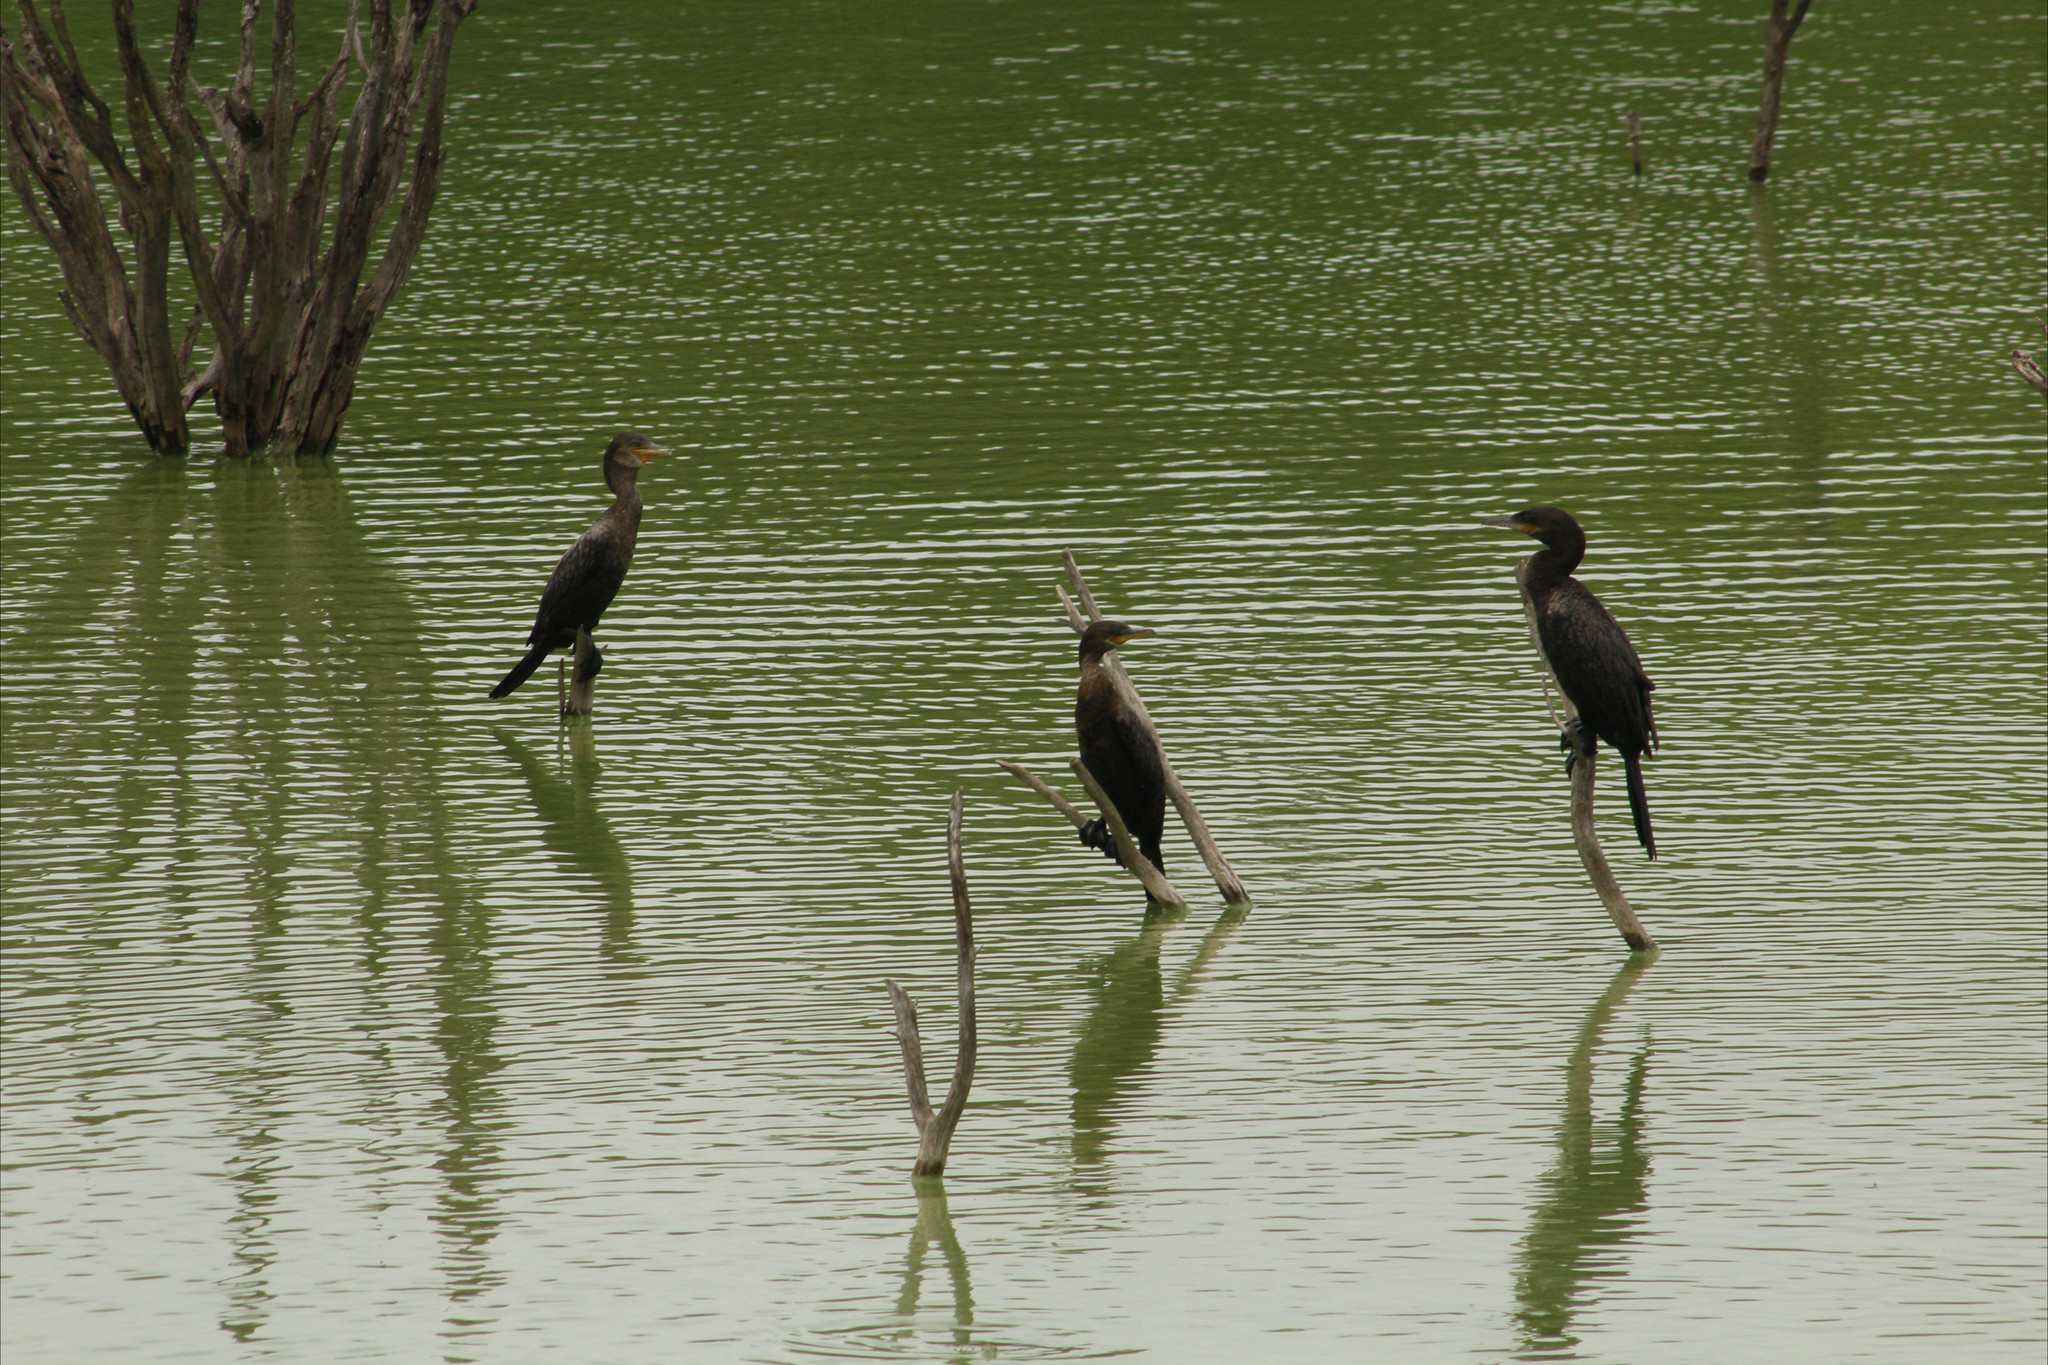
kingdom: Animalia
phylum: Chordata
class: Aves
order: Suliformes
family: Phalacrocoracidae
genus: Phalacrocorax
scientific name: Phalacrocorax brasilianus
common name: Neotropic cormorant
